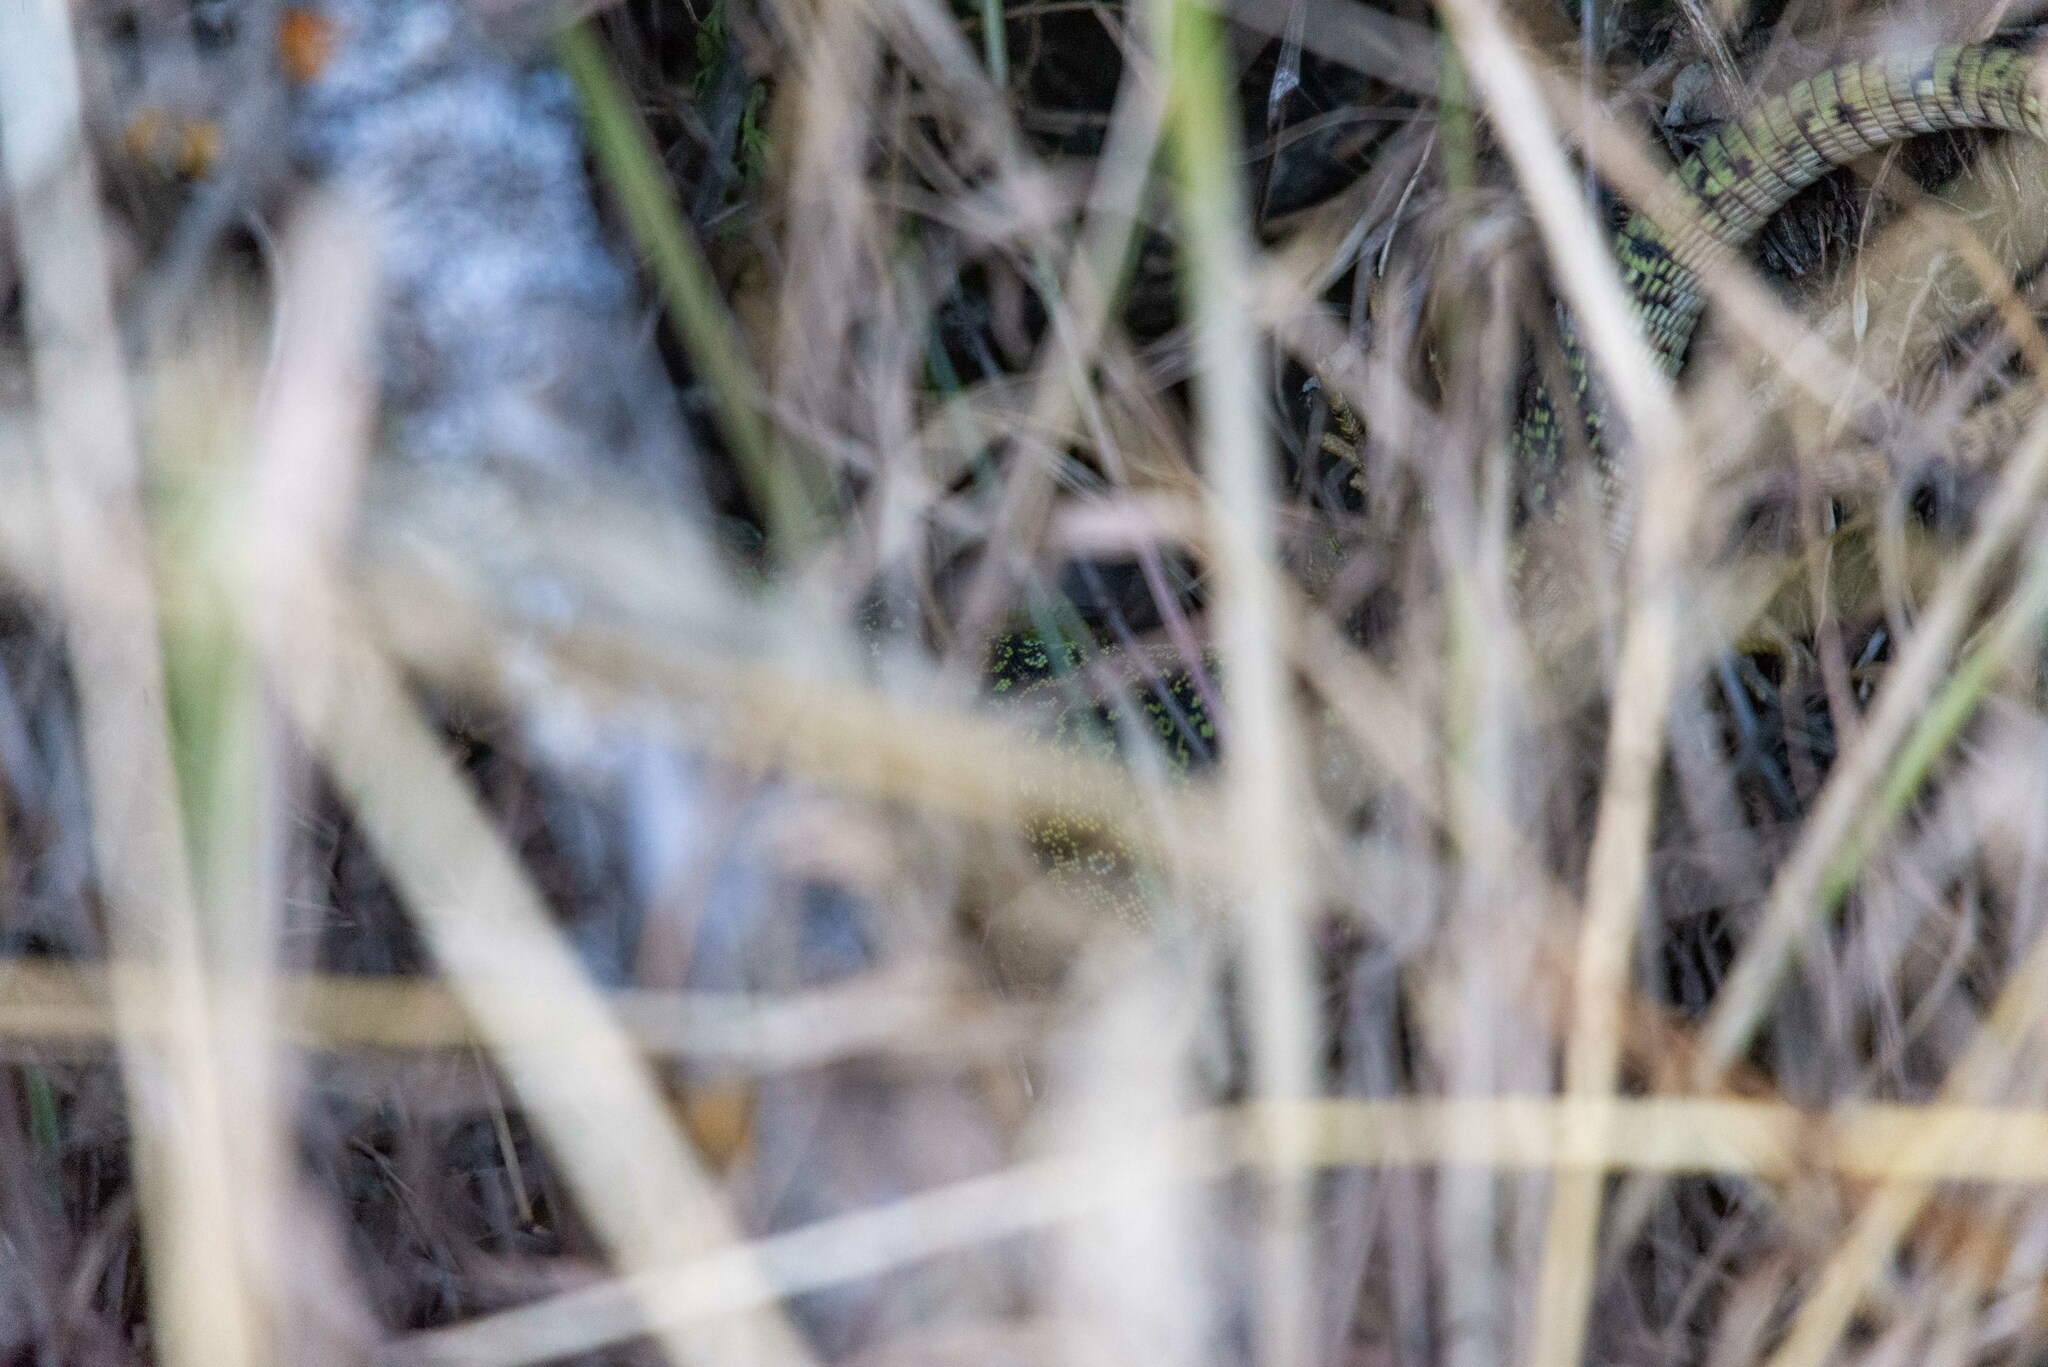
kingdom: Animalia
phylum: Chordata
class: Squamata
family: Lacertidae
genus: Timon
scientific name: Timon lepidus
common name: Ocellated lizard
